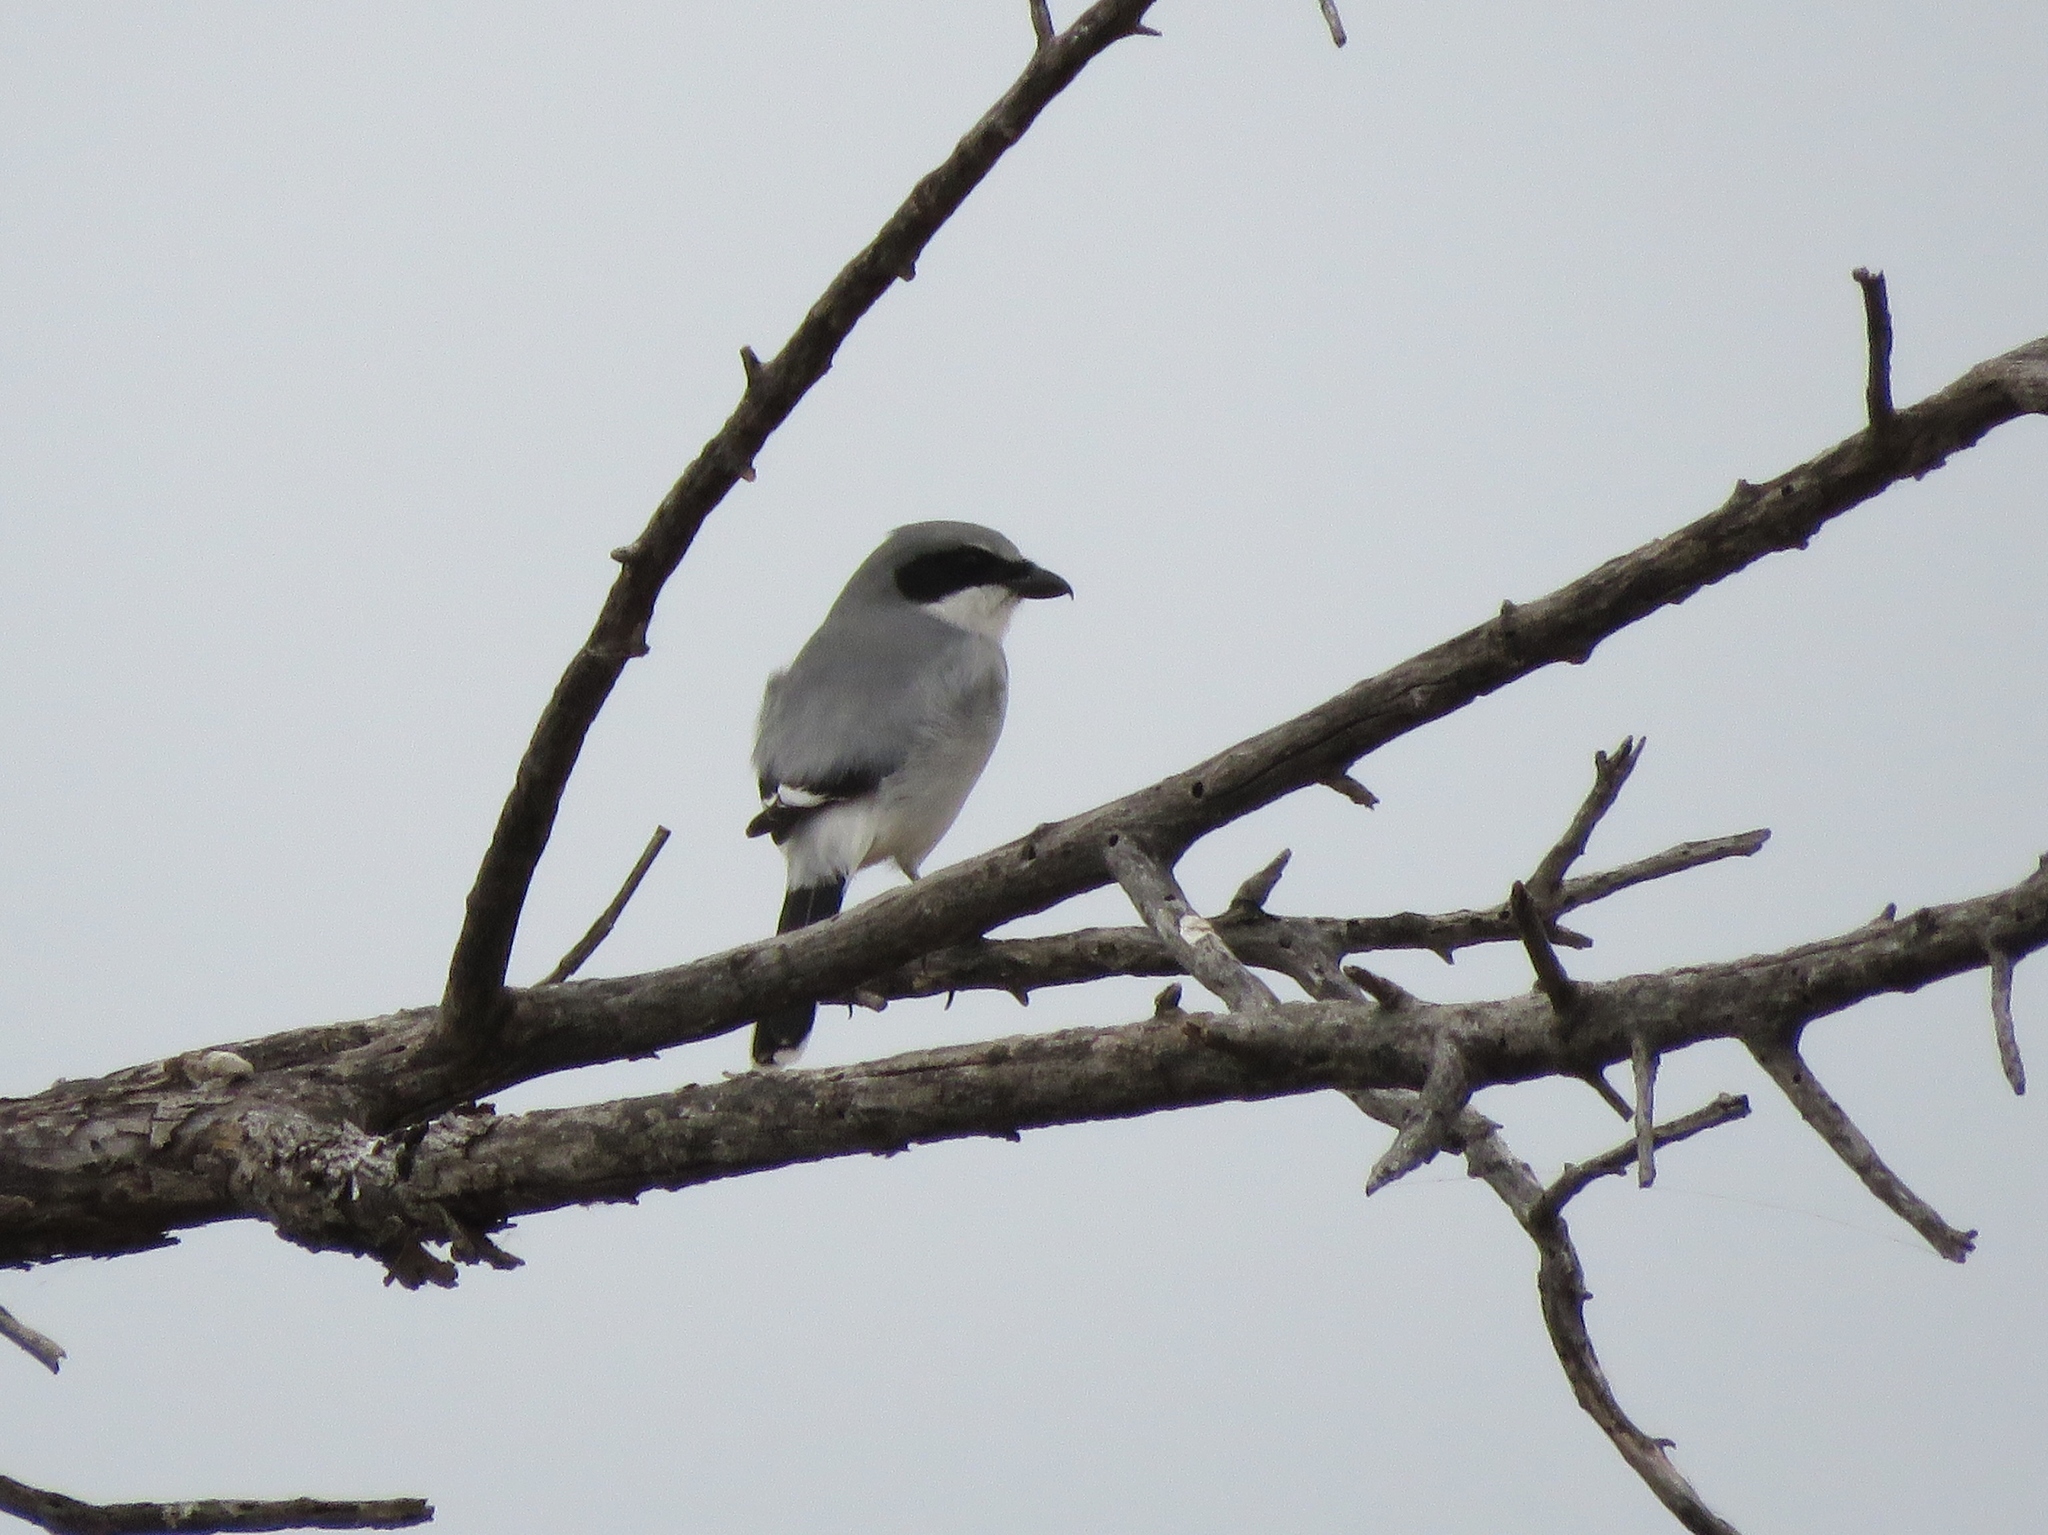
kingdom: Animalia
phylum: Chordata
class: Aves
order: Passeriformes
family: Laniidae
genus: Lanius
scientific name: Lanius ludovicianus
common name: Loggerhead shrike
